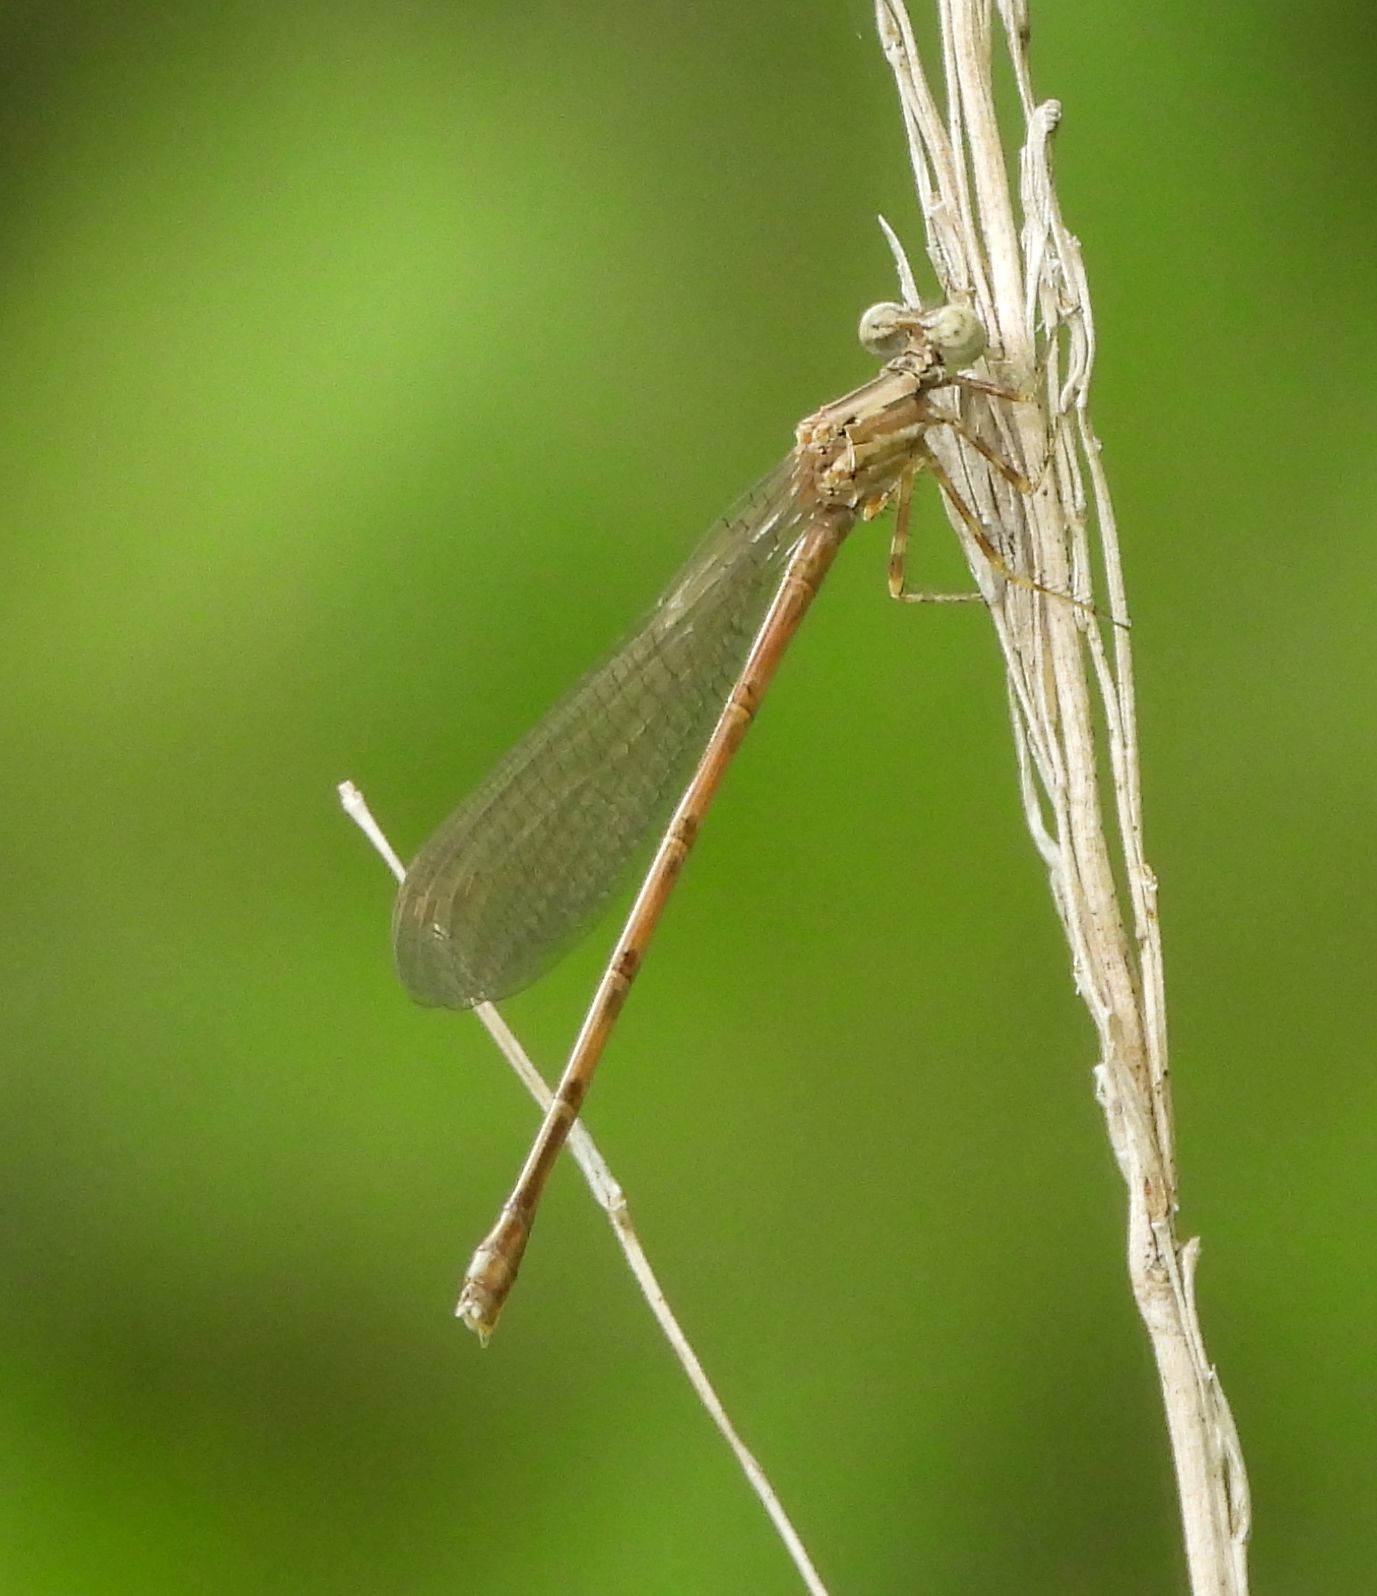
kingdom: Animalia
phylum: Arthropoda
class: Insecta
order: Odonata
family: Coenagrionidae
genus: Argia
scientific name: Argia fumipennis
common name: Variable dancer
